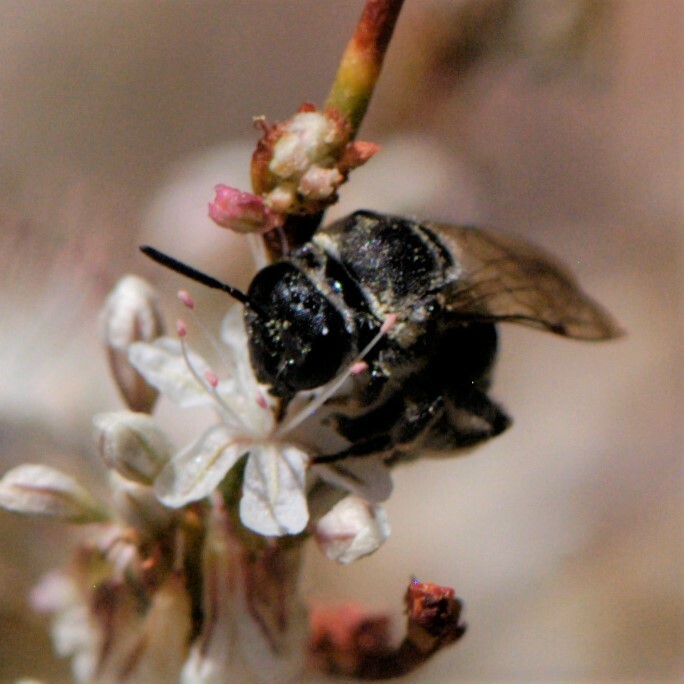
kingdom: Animalia
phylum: Arthropoda
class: Insecta
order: Hymenoptera
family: Halictidae
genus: Acunomia
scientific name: Acunomia
